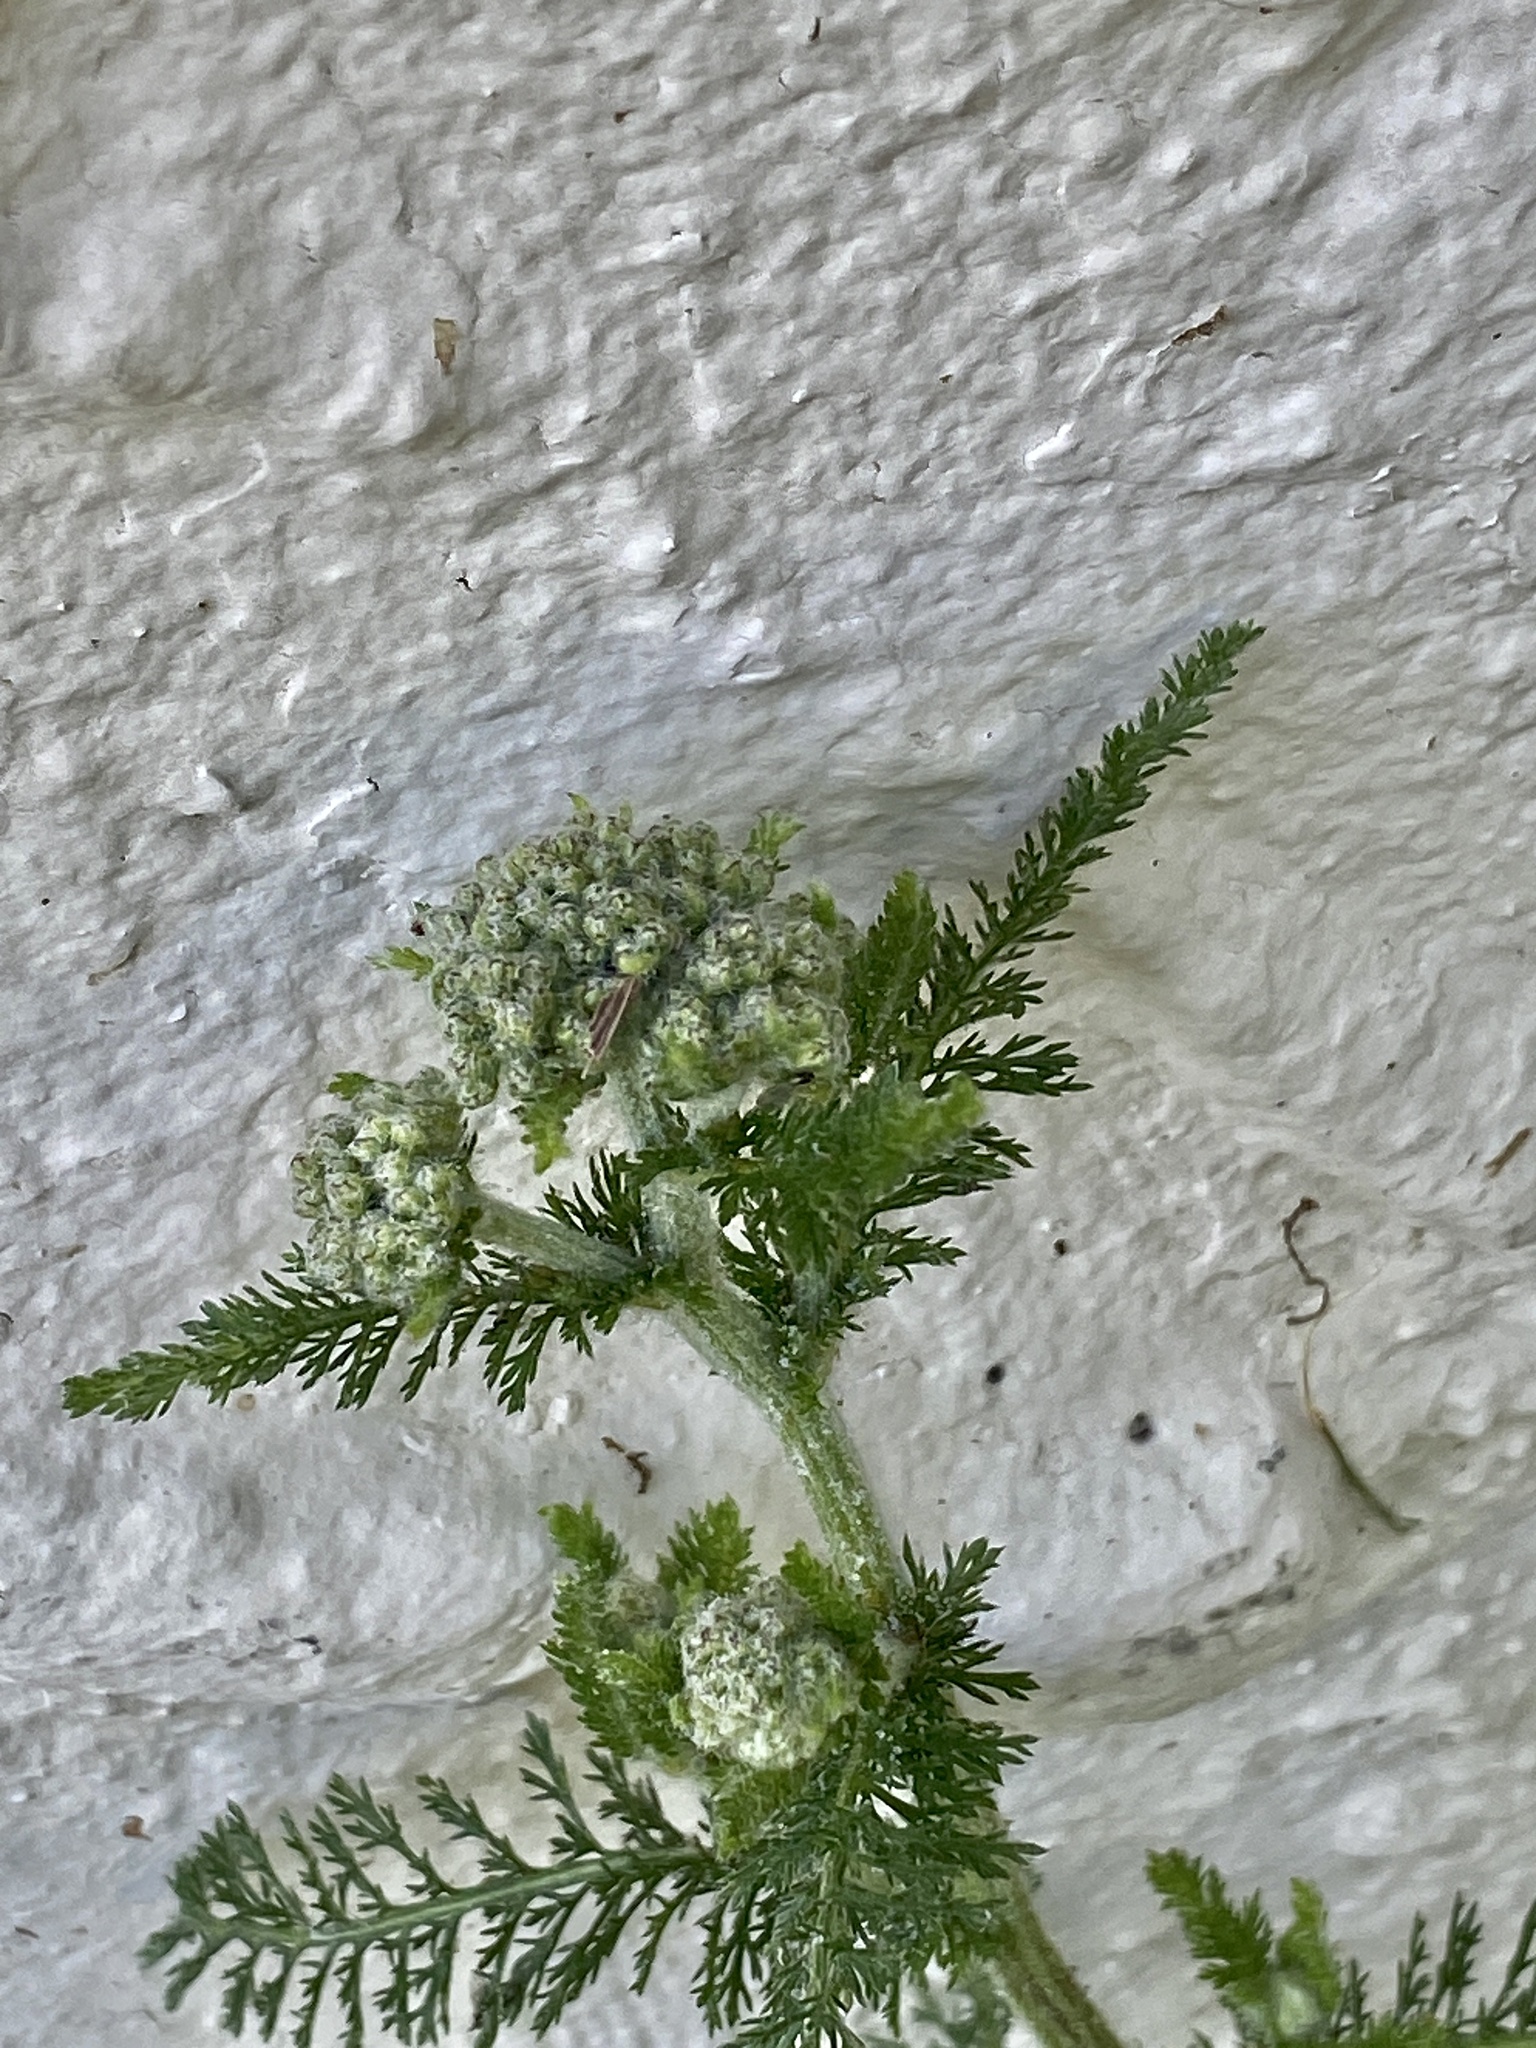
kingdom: Plantae
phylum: Tracheophyta
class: Magnoliopsida
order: Asterales
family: Asteraceae
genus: Achillea
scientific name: Achillea millefolium
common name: Yarrow
